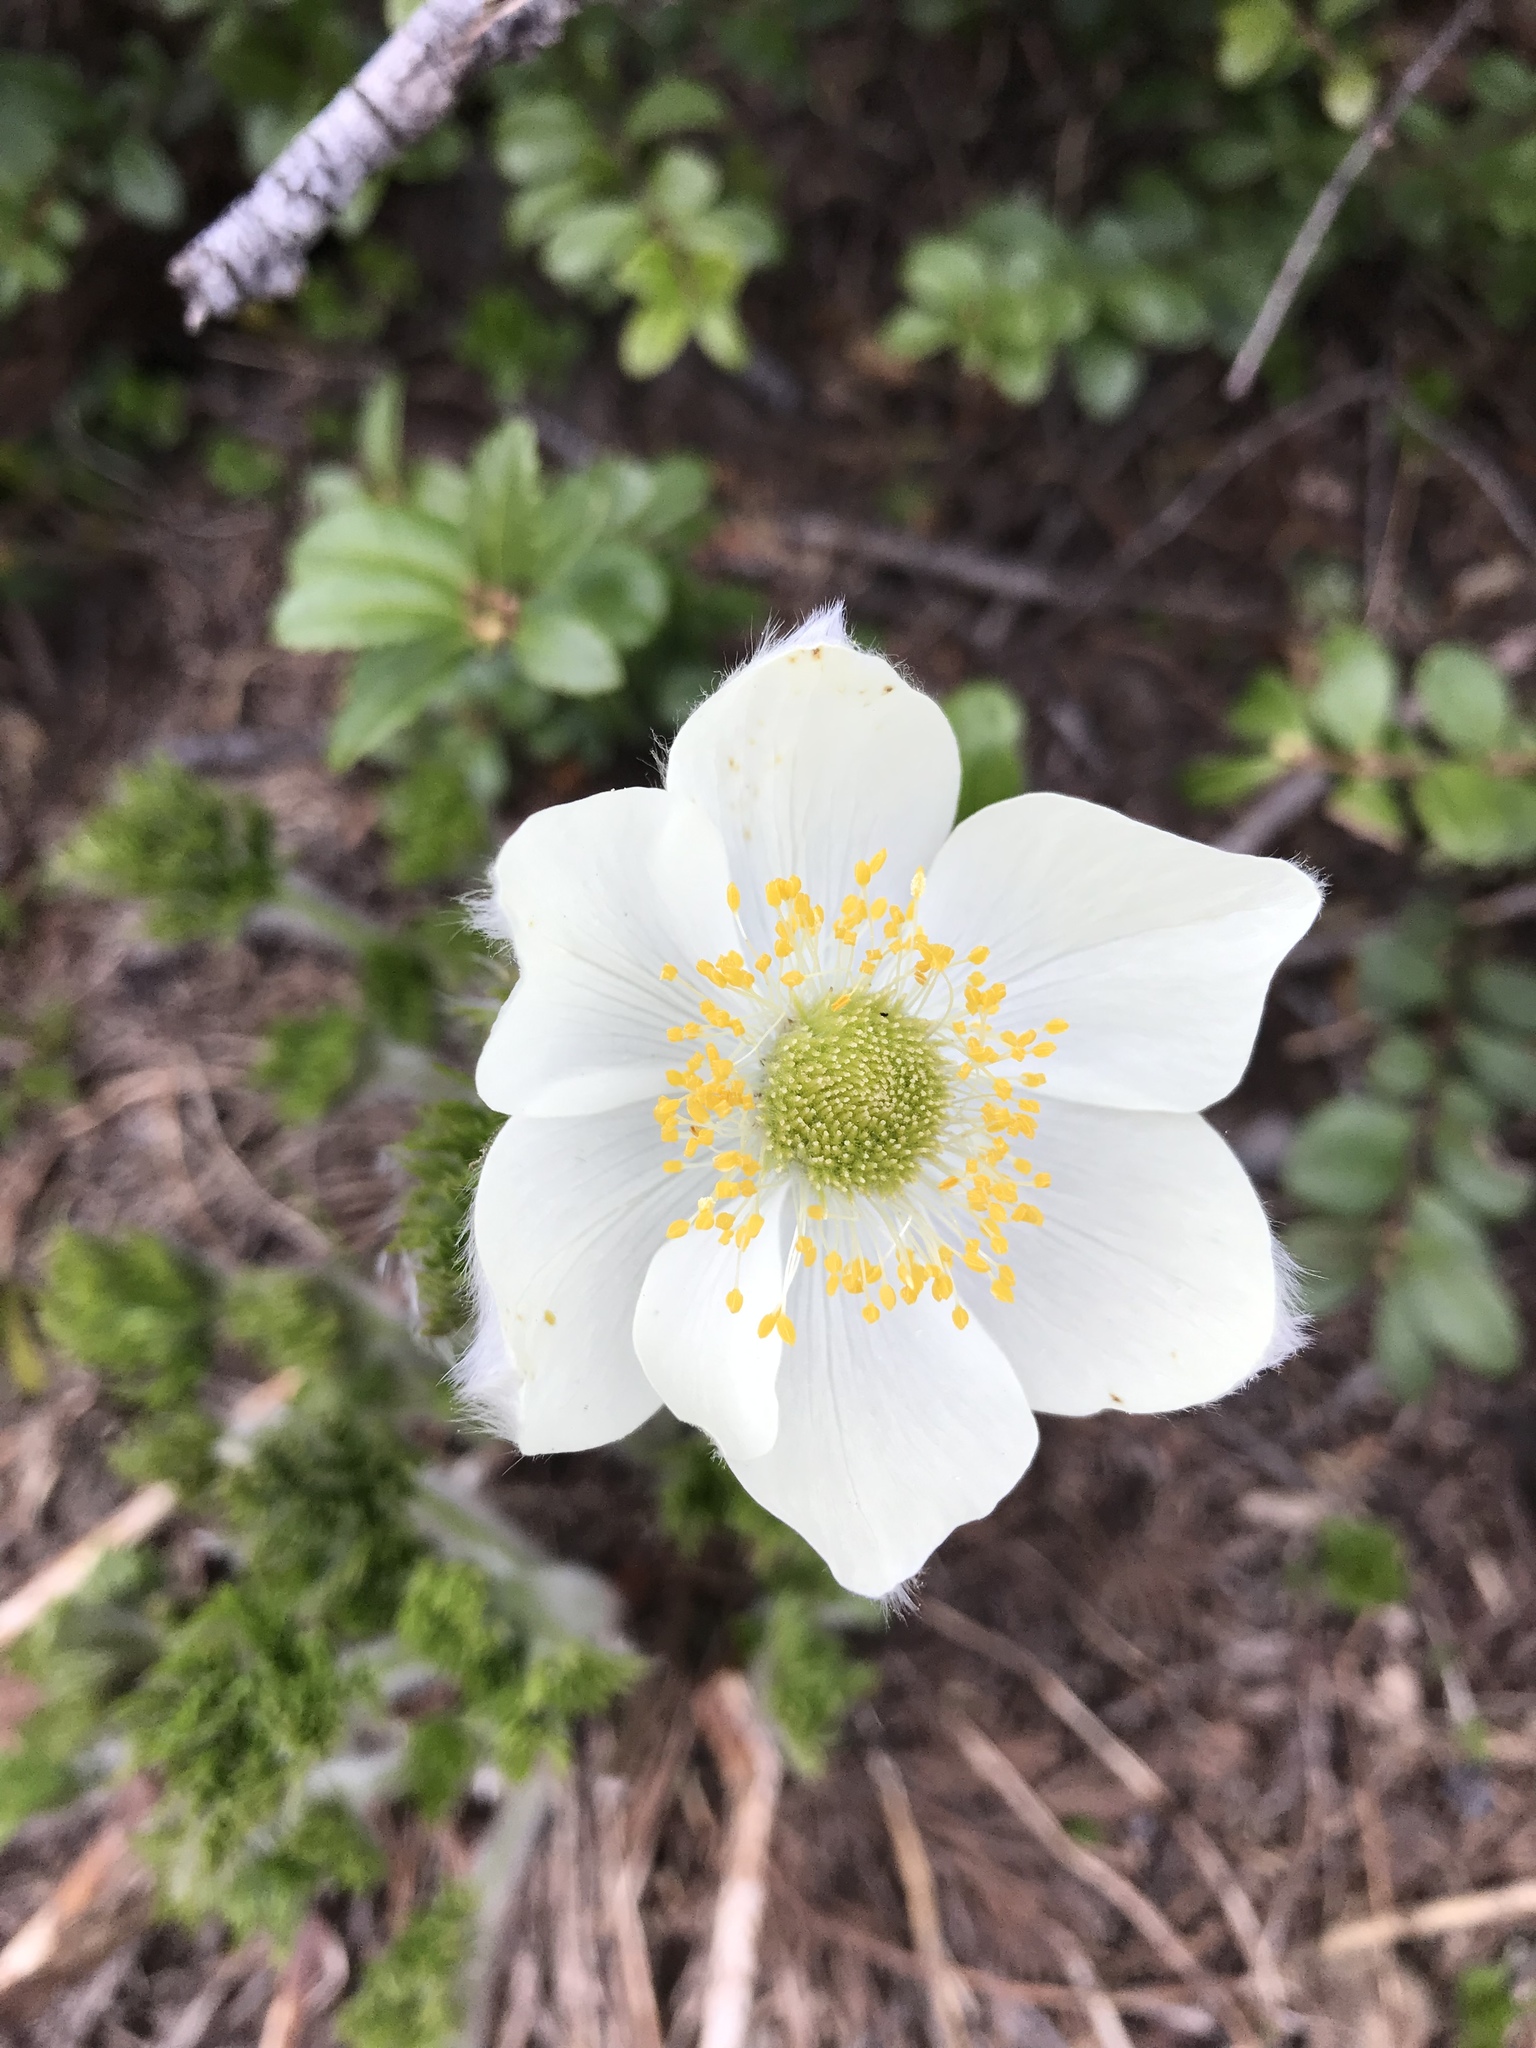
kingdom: Plantae
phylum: Tracheophyta
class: Magnoliopsida
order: Ranunculales
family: Ranunculaceae
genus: Pulsatilla
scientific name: Pulsatilla occidentalis
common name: Mountain pasqueflower
